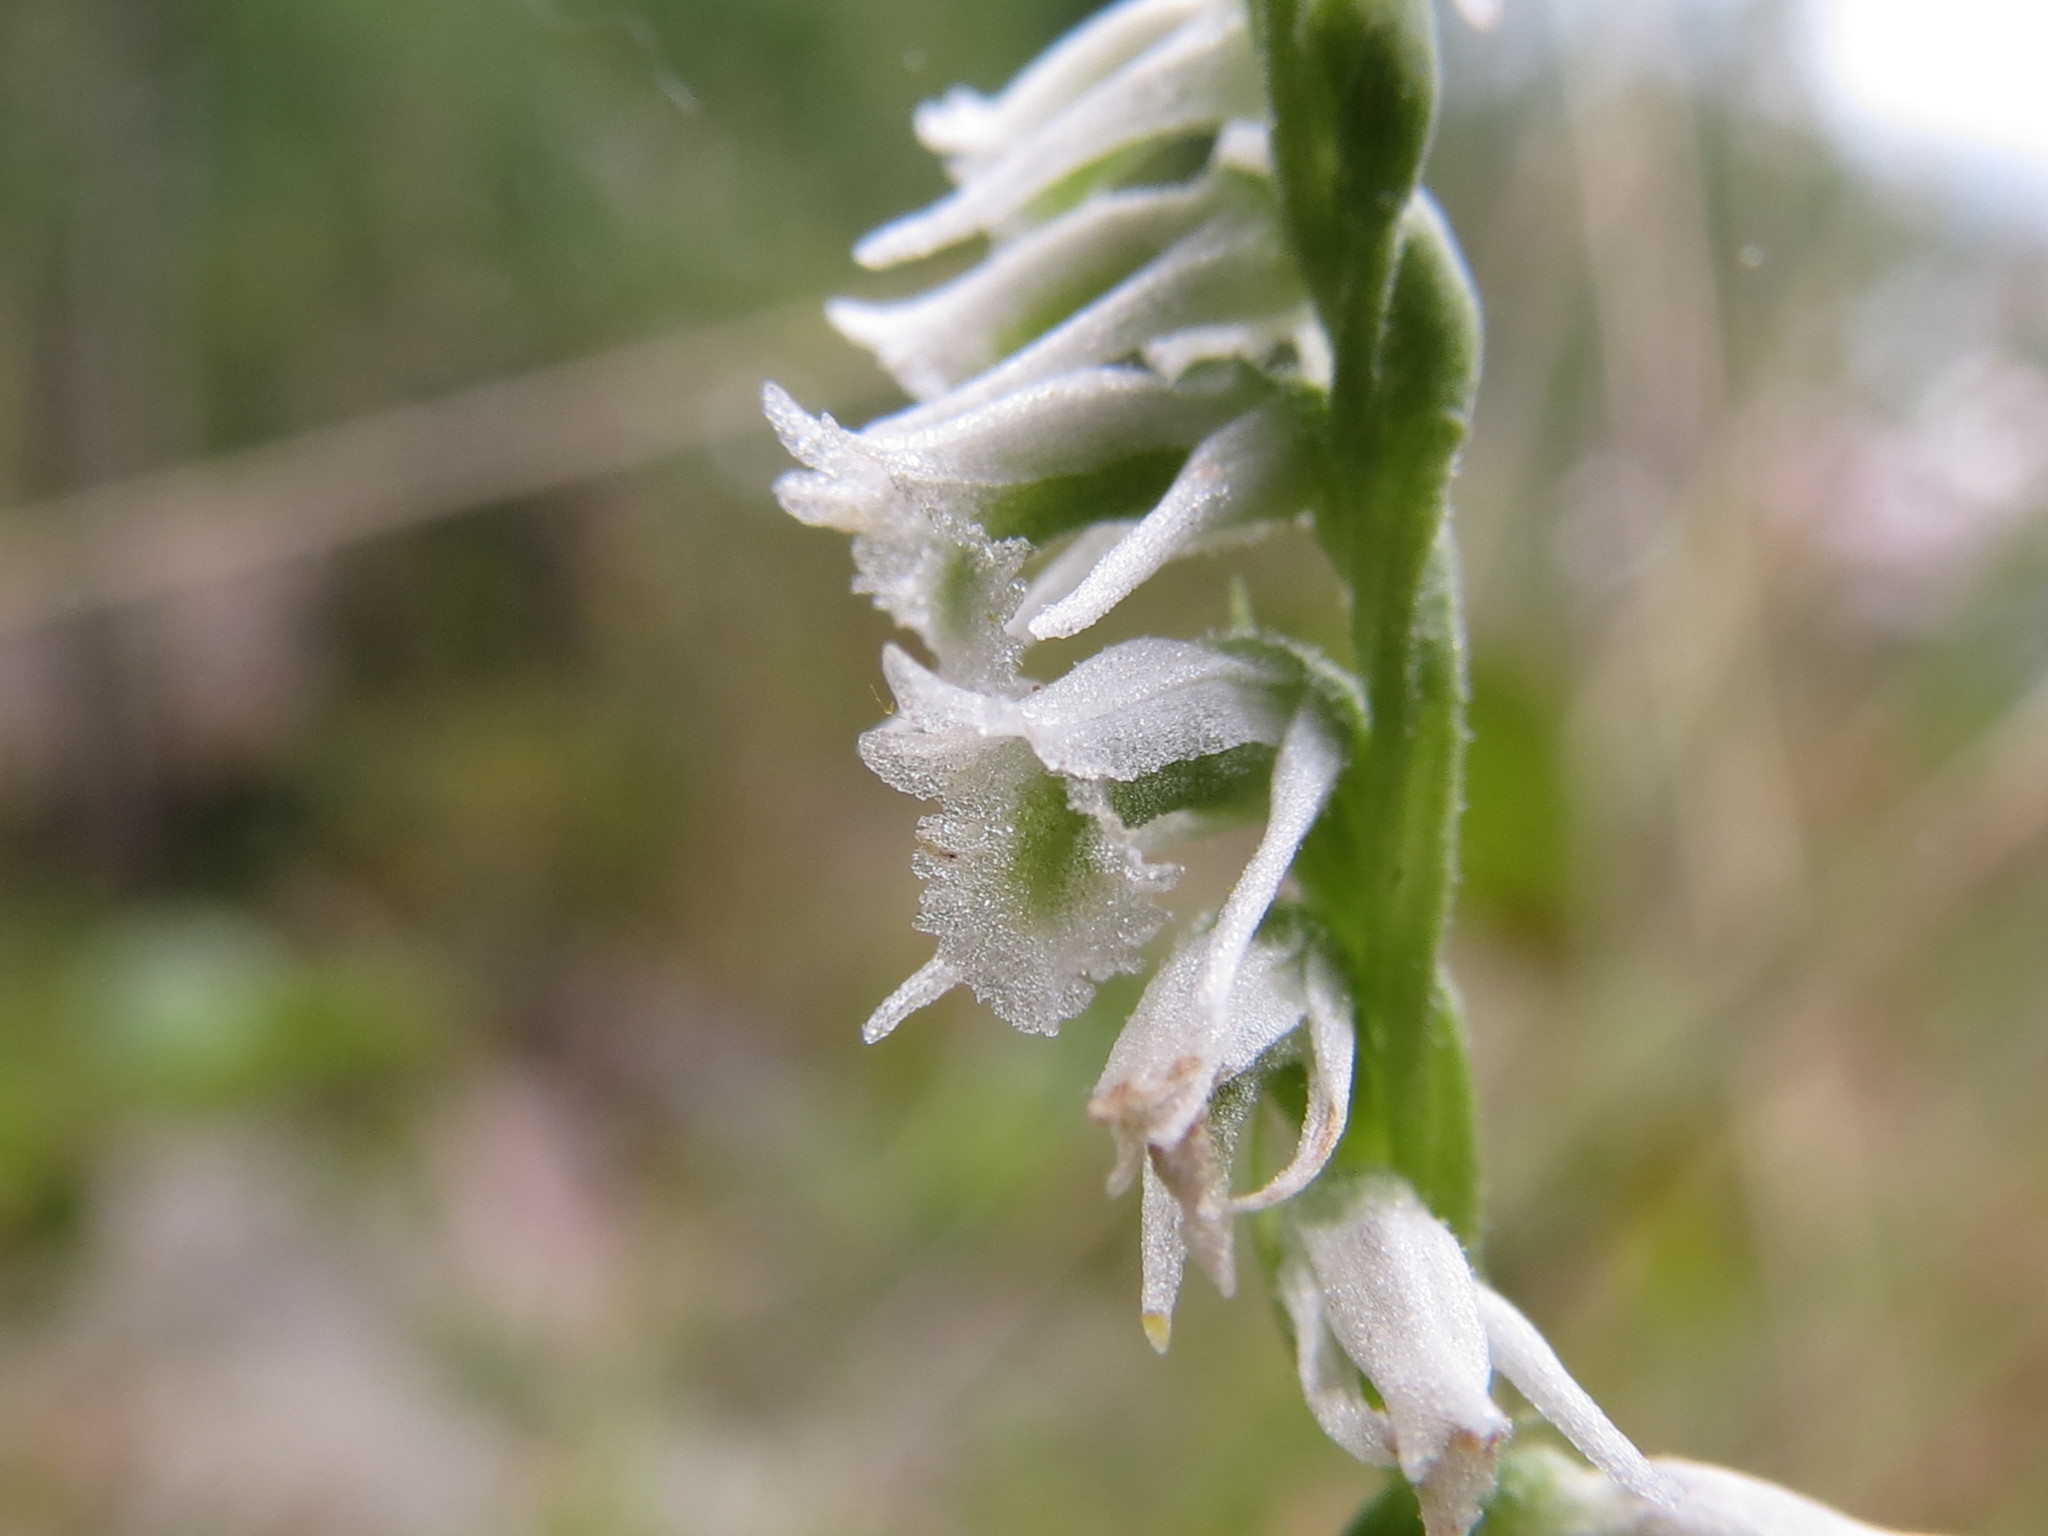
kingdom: Plantae
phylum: Tracheophyta
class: Liliopsida
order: Asparagales
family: Orchidaceae
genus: Spiranthes
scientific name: Spiranthes lacera
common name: Northern slender ladies'-tresses
